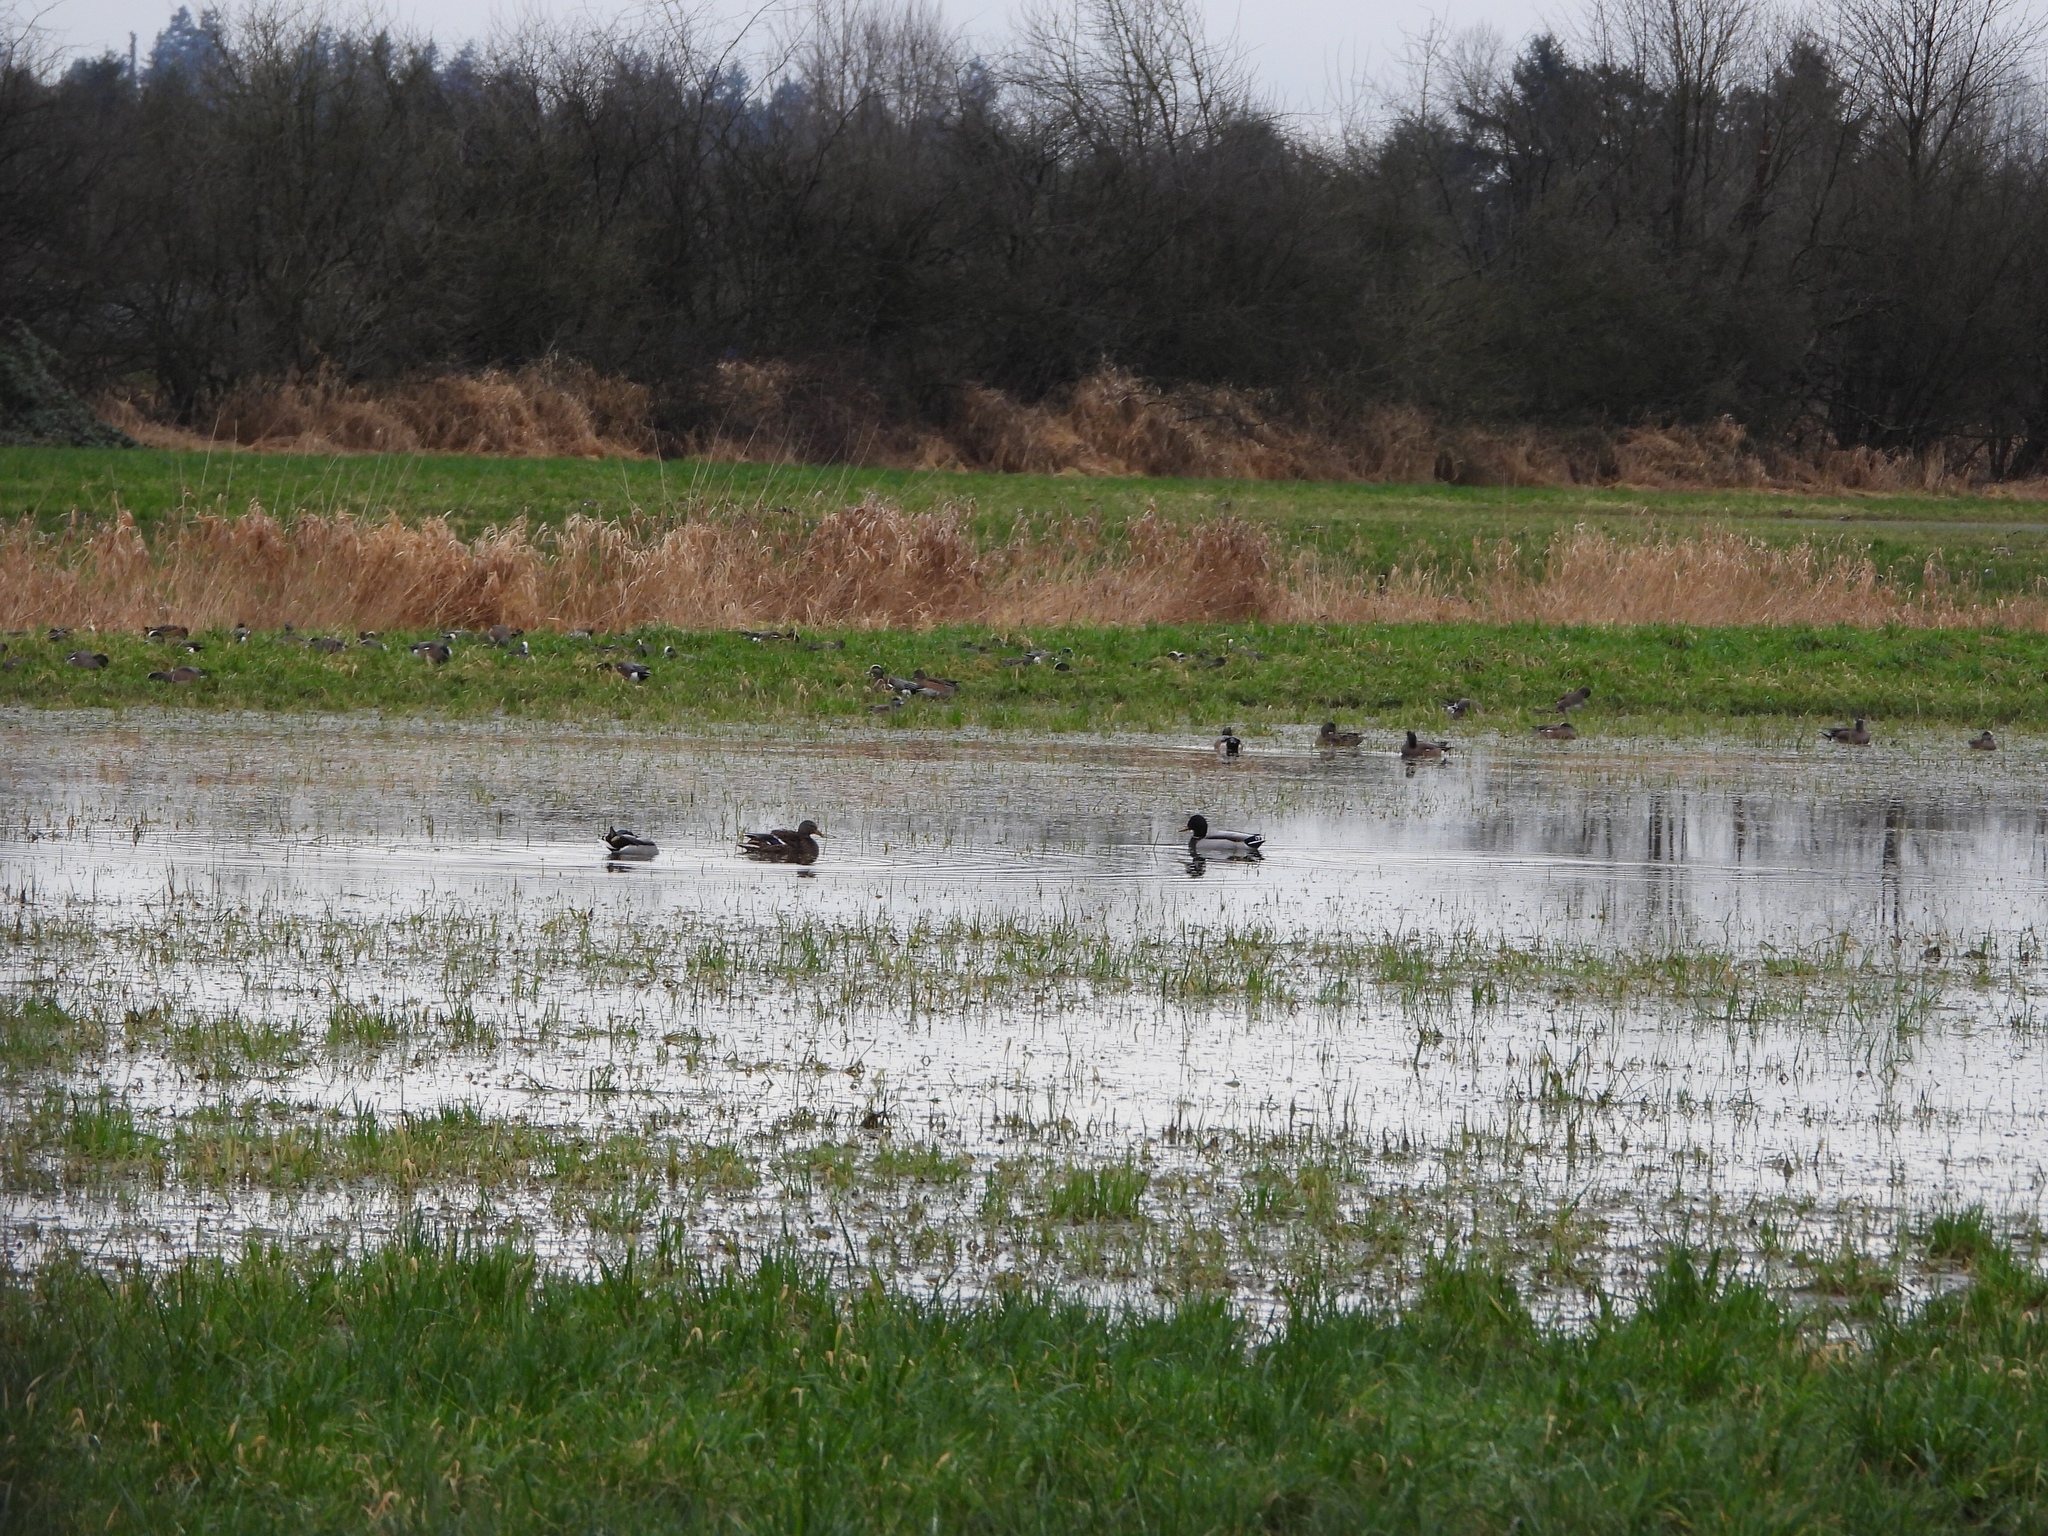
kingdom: Animalia
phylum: Chordata
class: Aves
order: Anseriformes
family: Anatidae
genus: Mareca
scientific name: Mareca americana
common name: American wigeon
